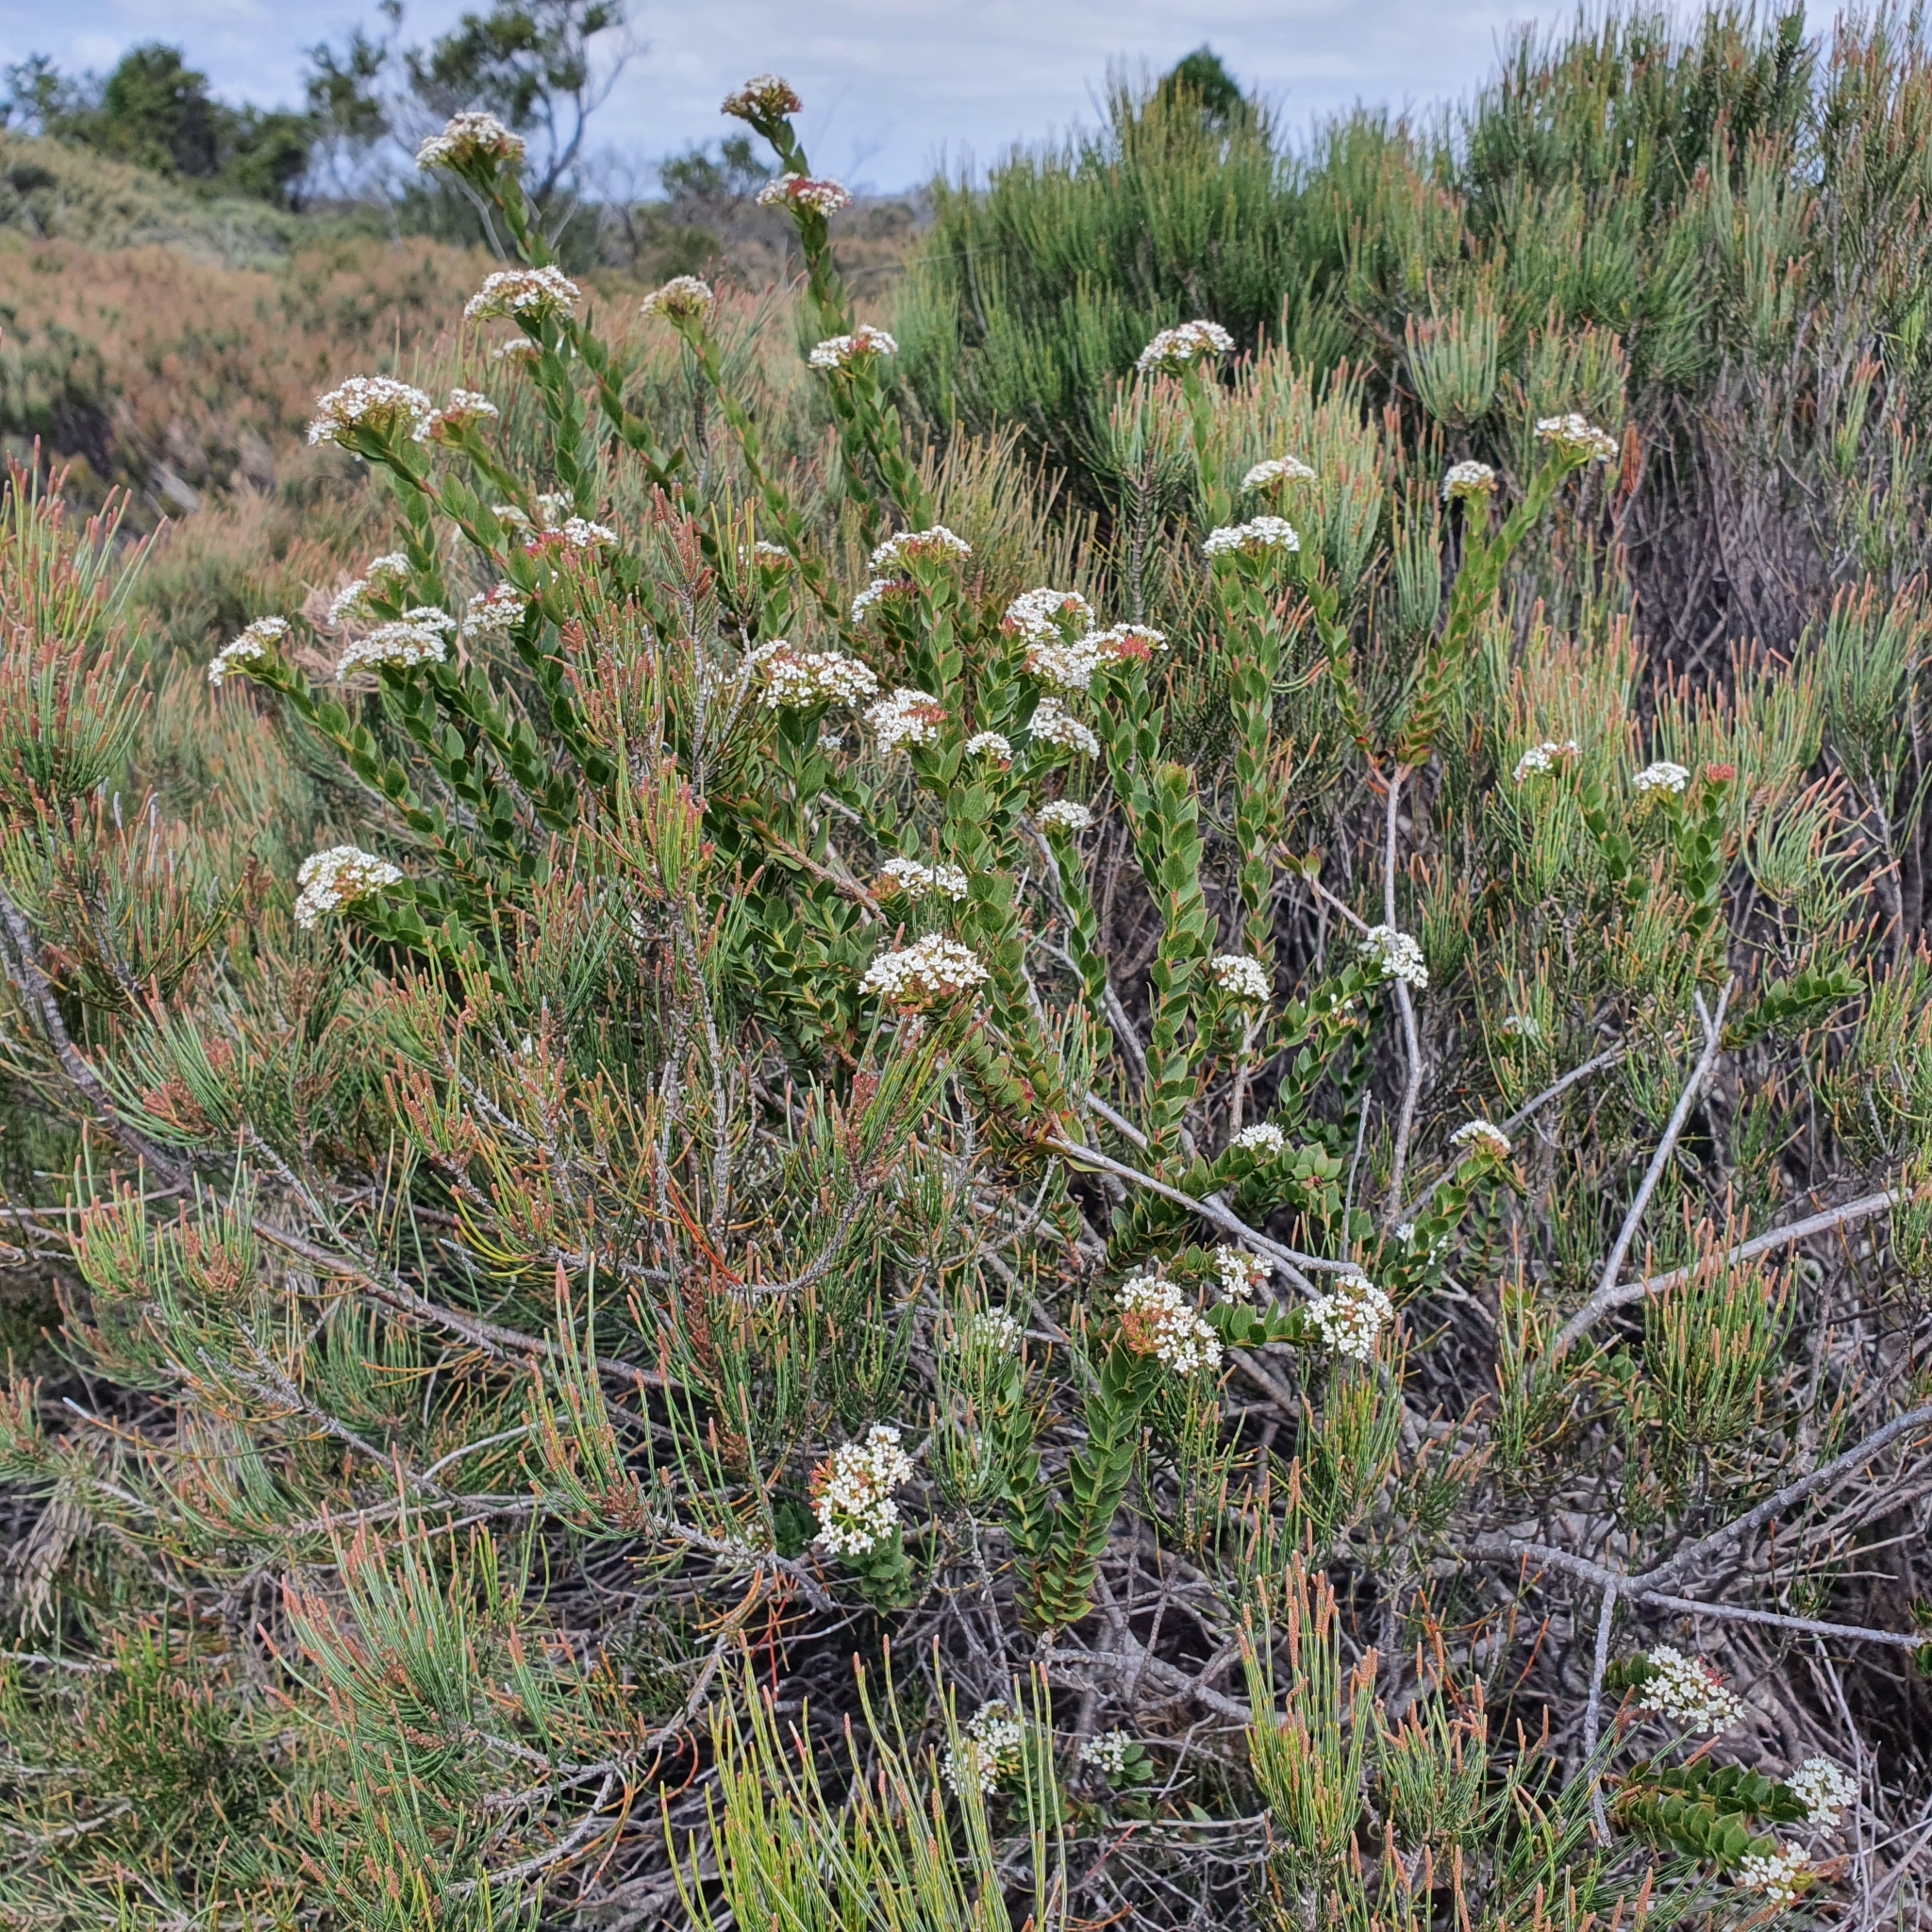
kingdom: Plantae
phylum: Tracheophyta
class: Magnoliopsida
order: Apiales
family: Apiaceae
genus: Platysace
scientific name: Platysace lanceolata
